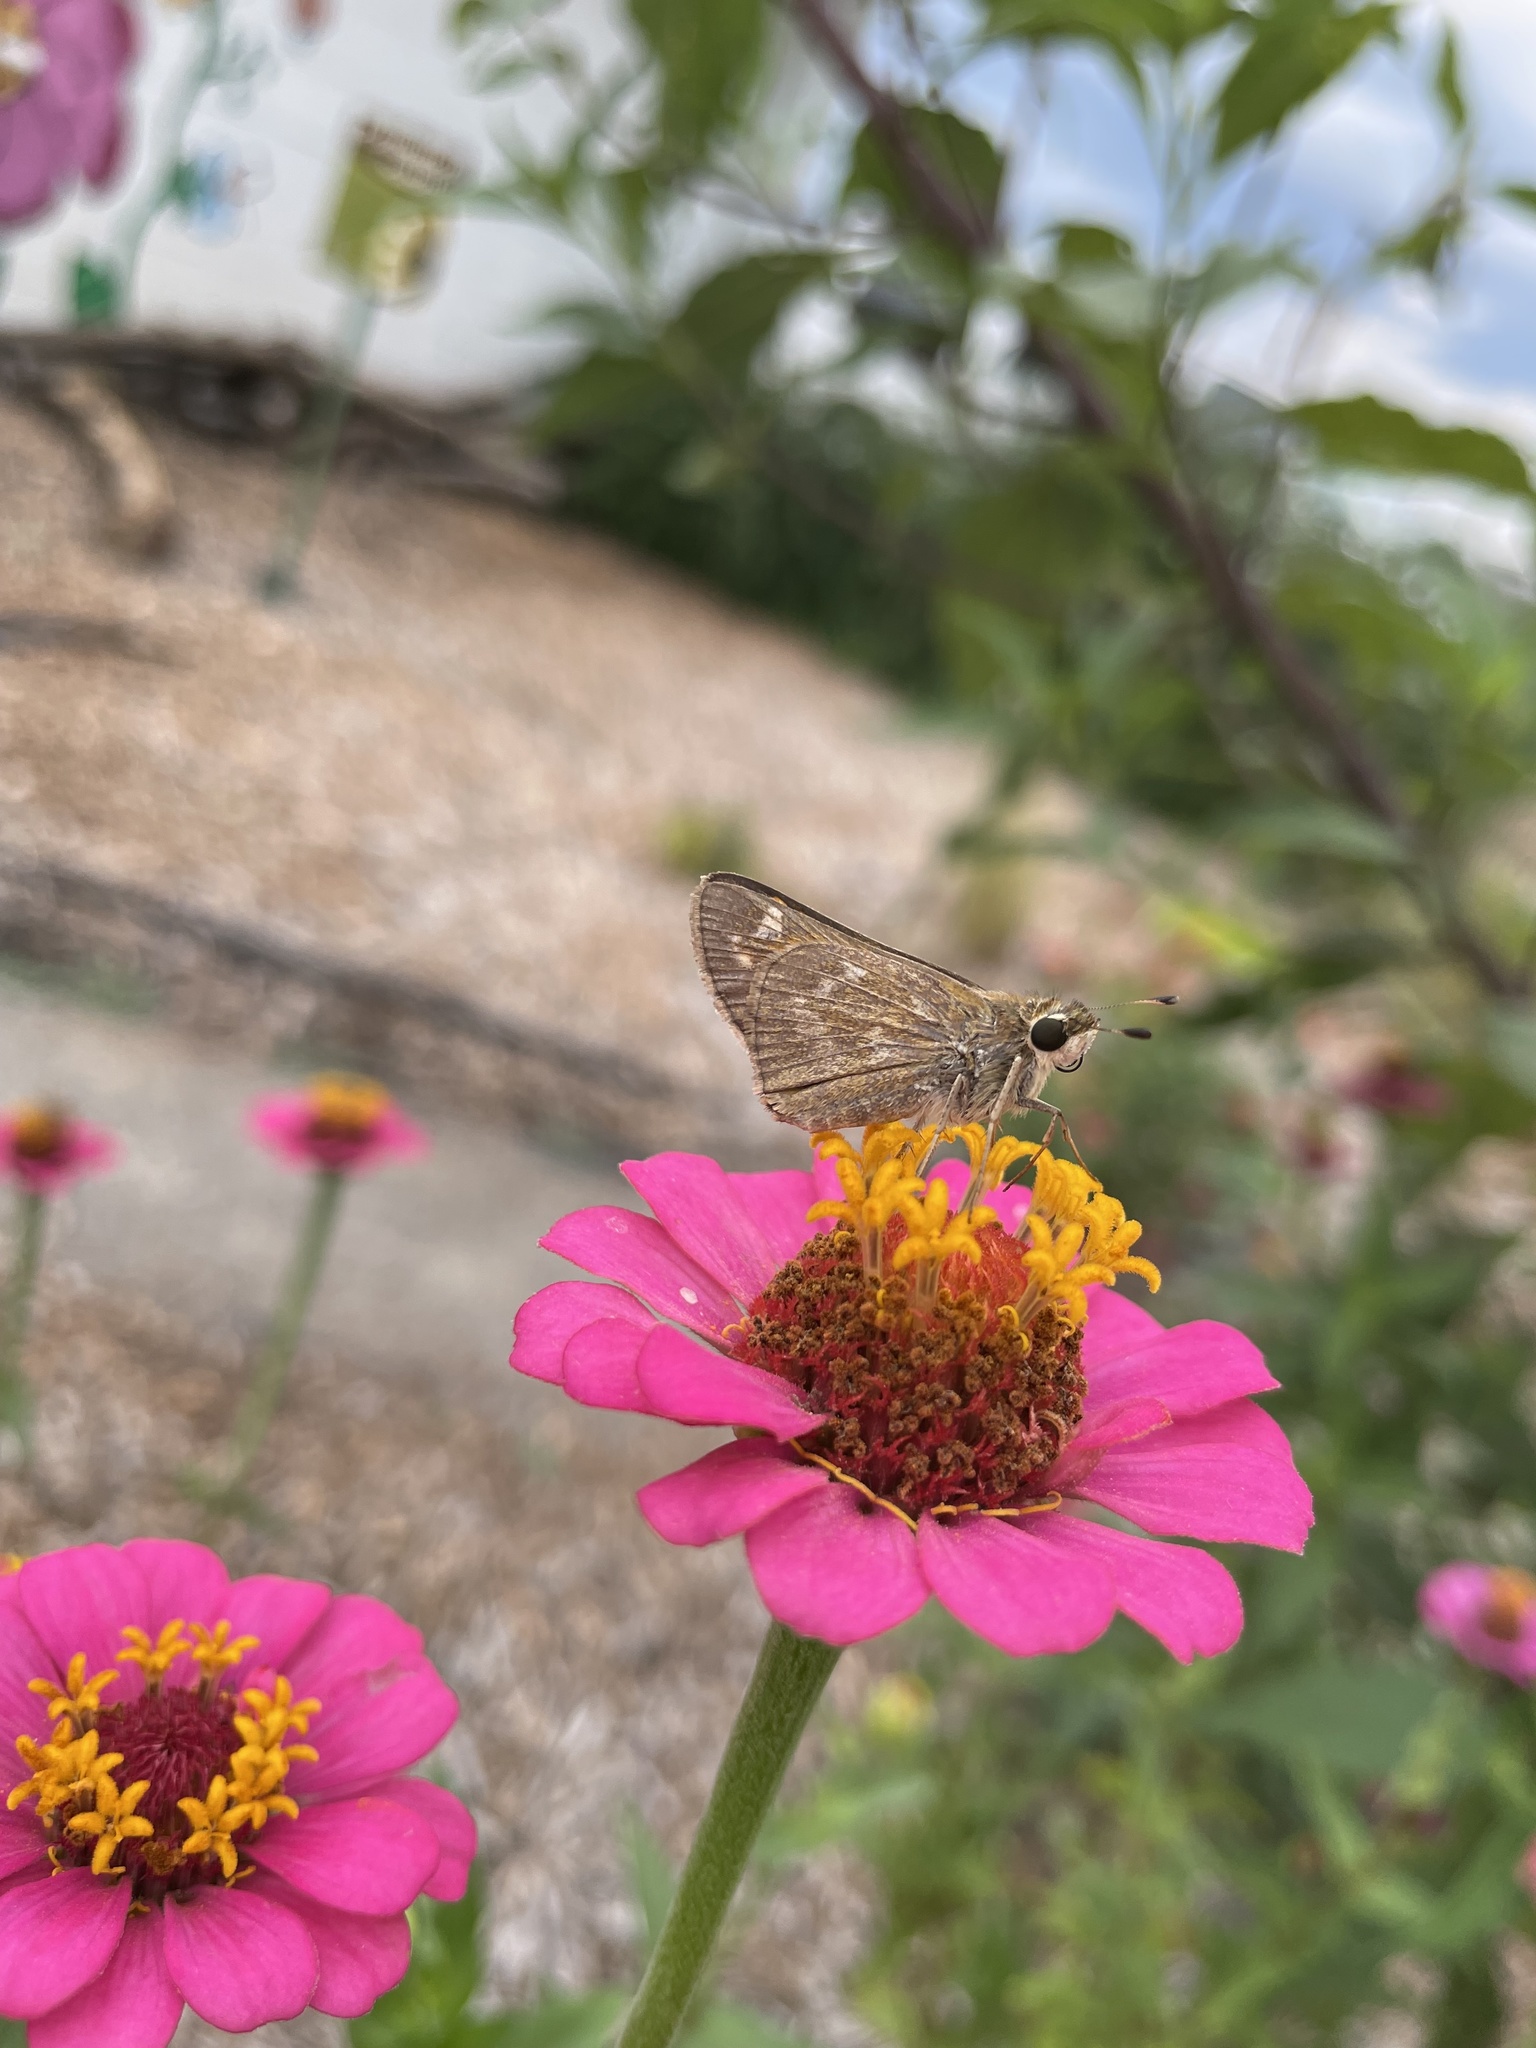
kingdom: Animalia
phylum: Arthropoda
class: Insecta
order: Lepidoptera
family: Hesperiidae
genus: Atalopedes
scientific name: Atalopedes
